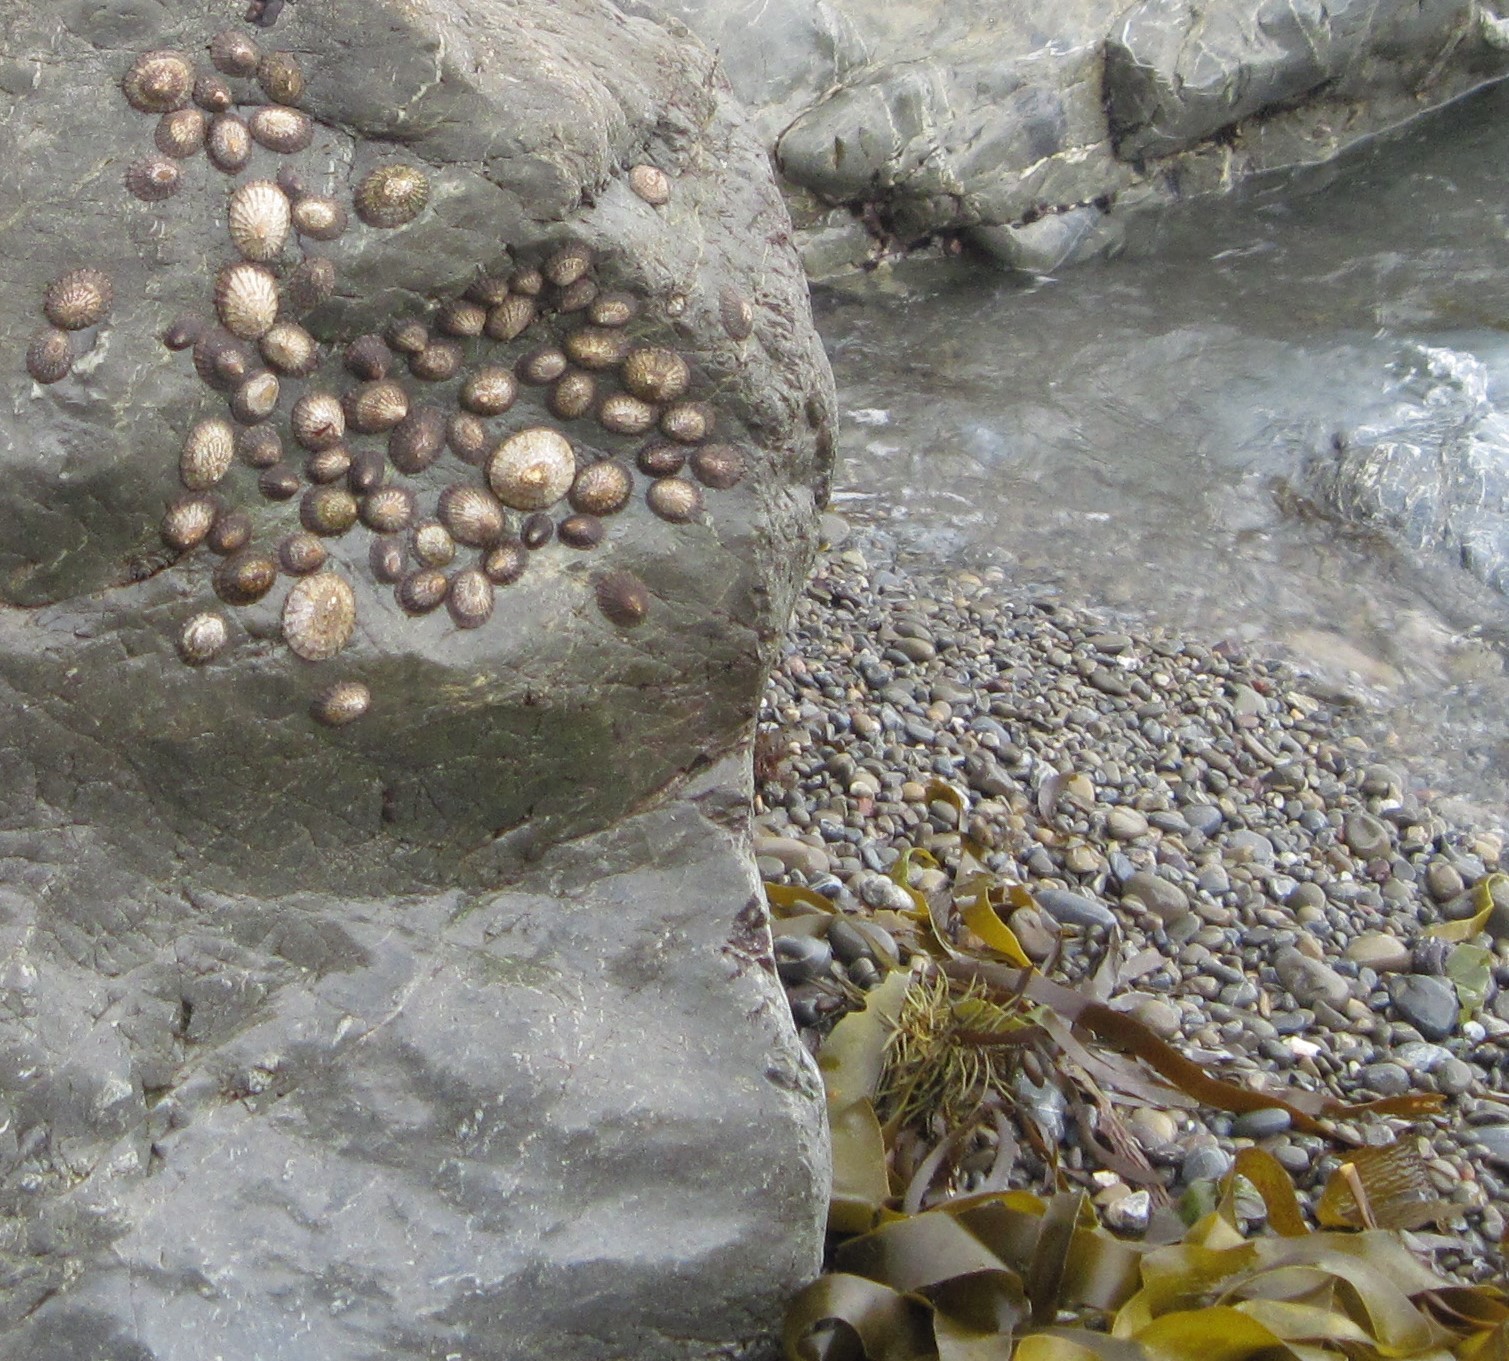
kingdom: Animalia
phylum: Mollusca
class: Gastropoda
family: Nacellidae
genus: Cellana
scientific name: Cellana denticulata
